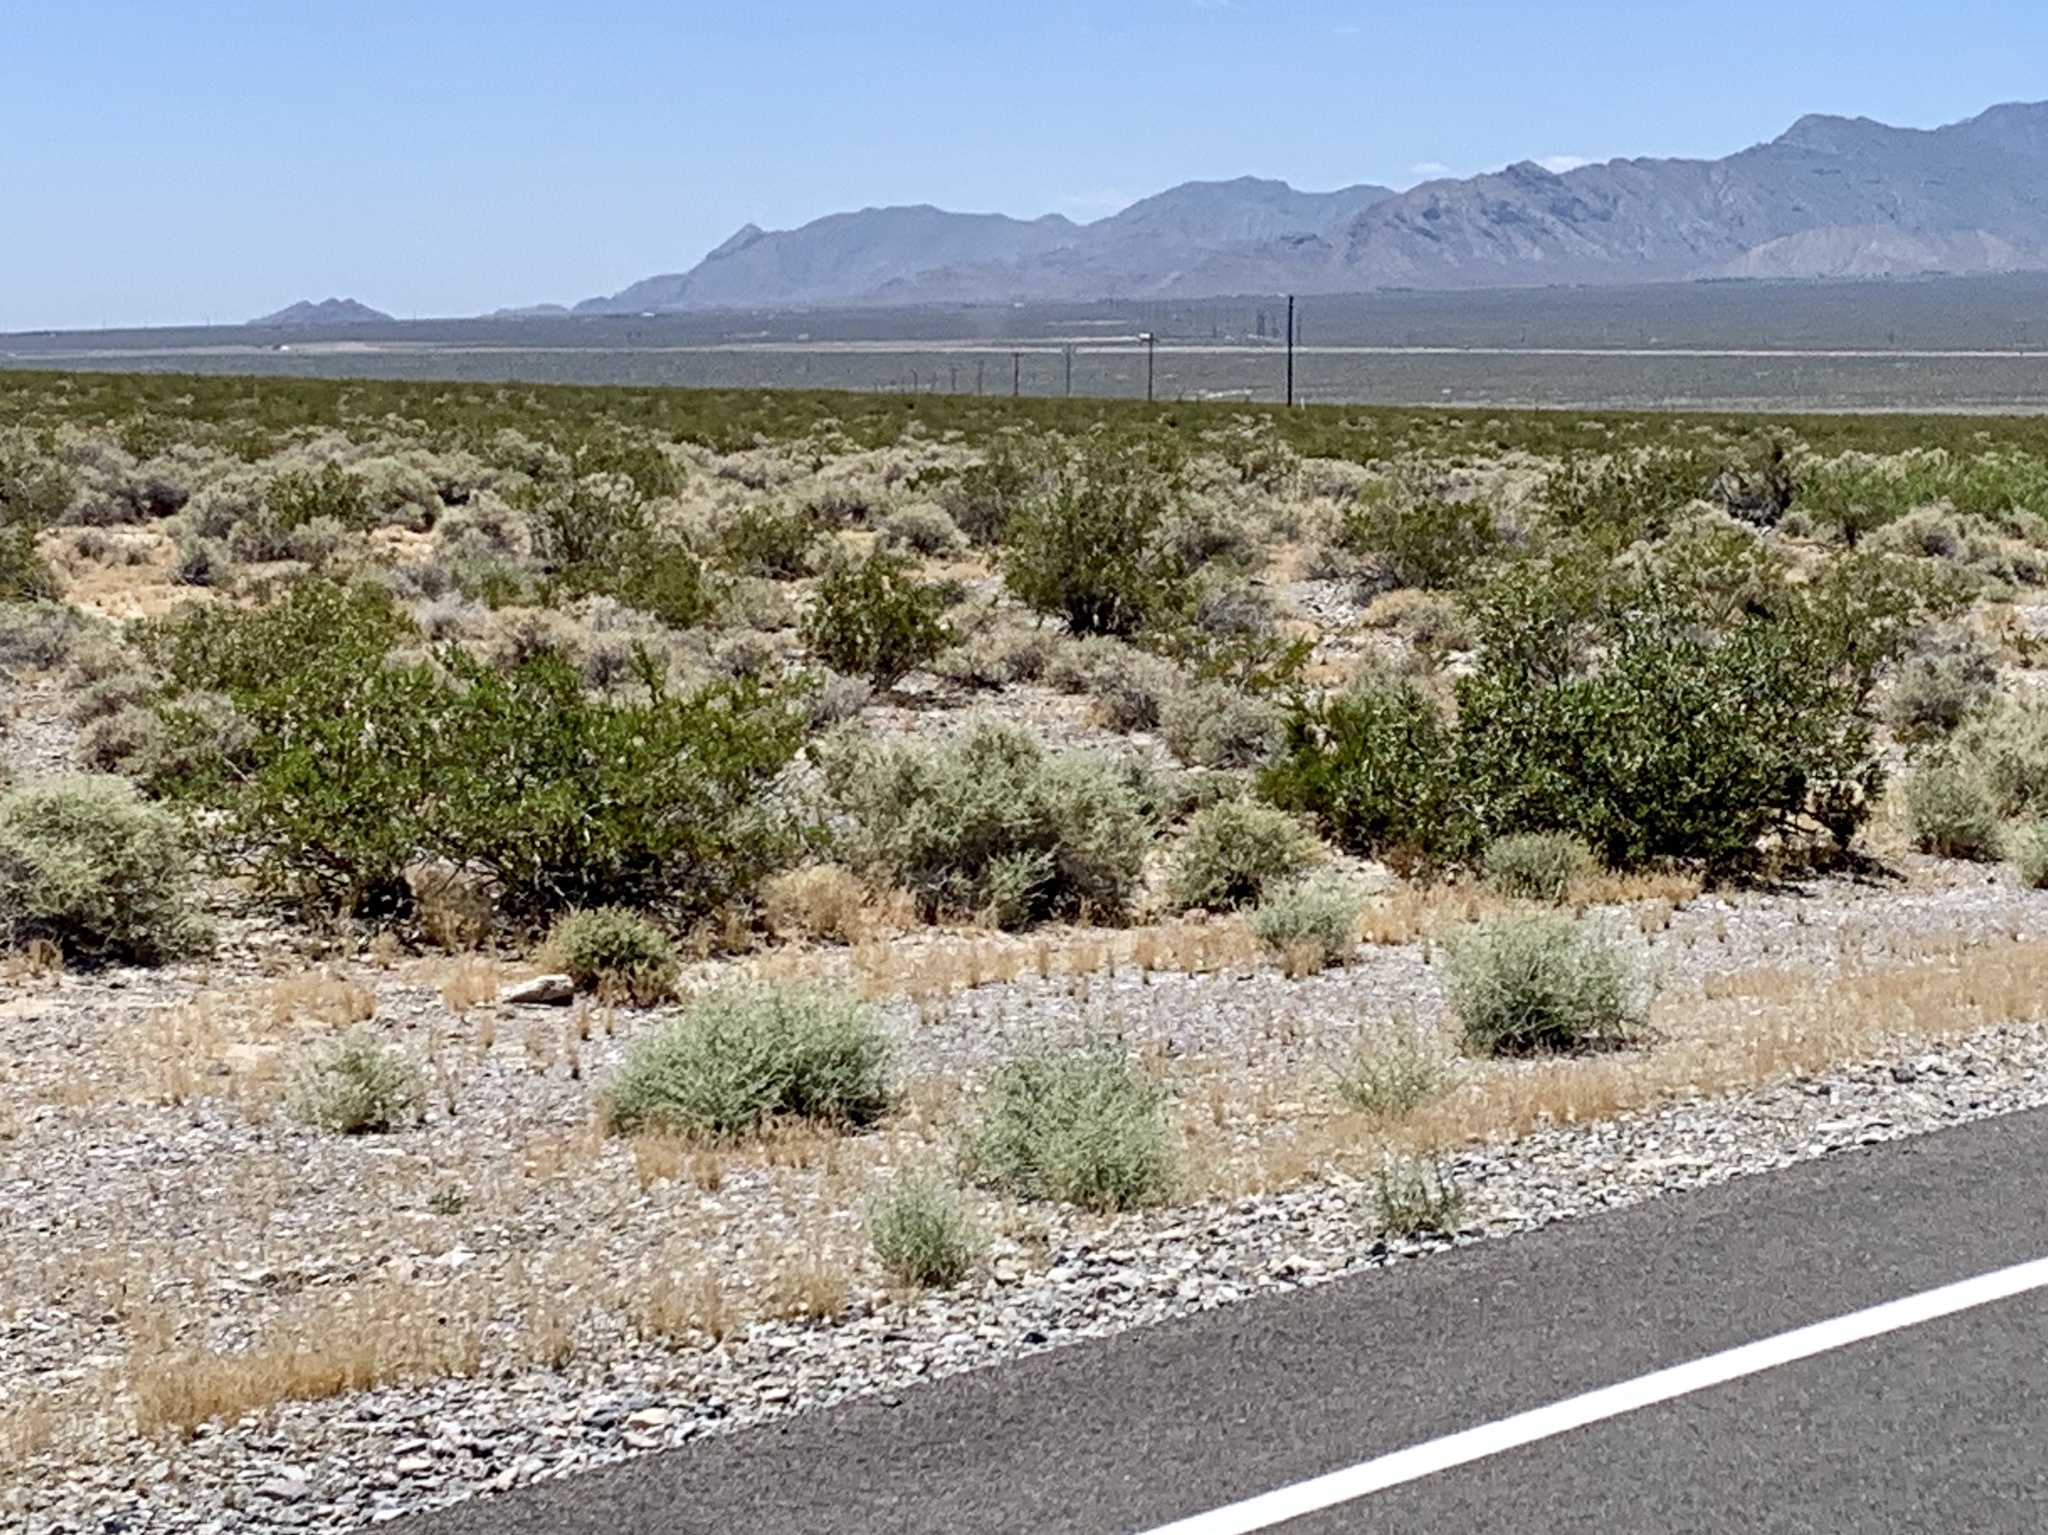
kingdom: Plantae
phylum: Tracheophyta
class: Magnoliopsida
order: Zygophyllales
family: Zygophyllaceae
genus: Larrea
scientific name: Larrea tridentata
